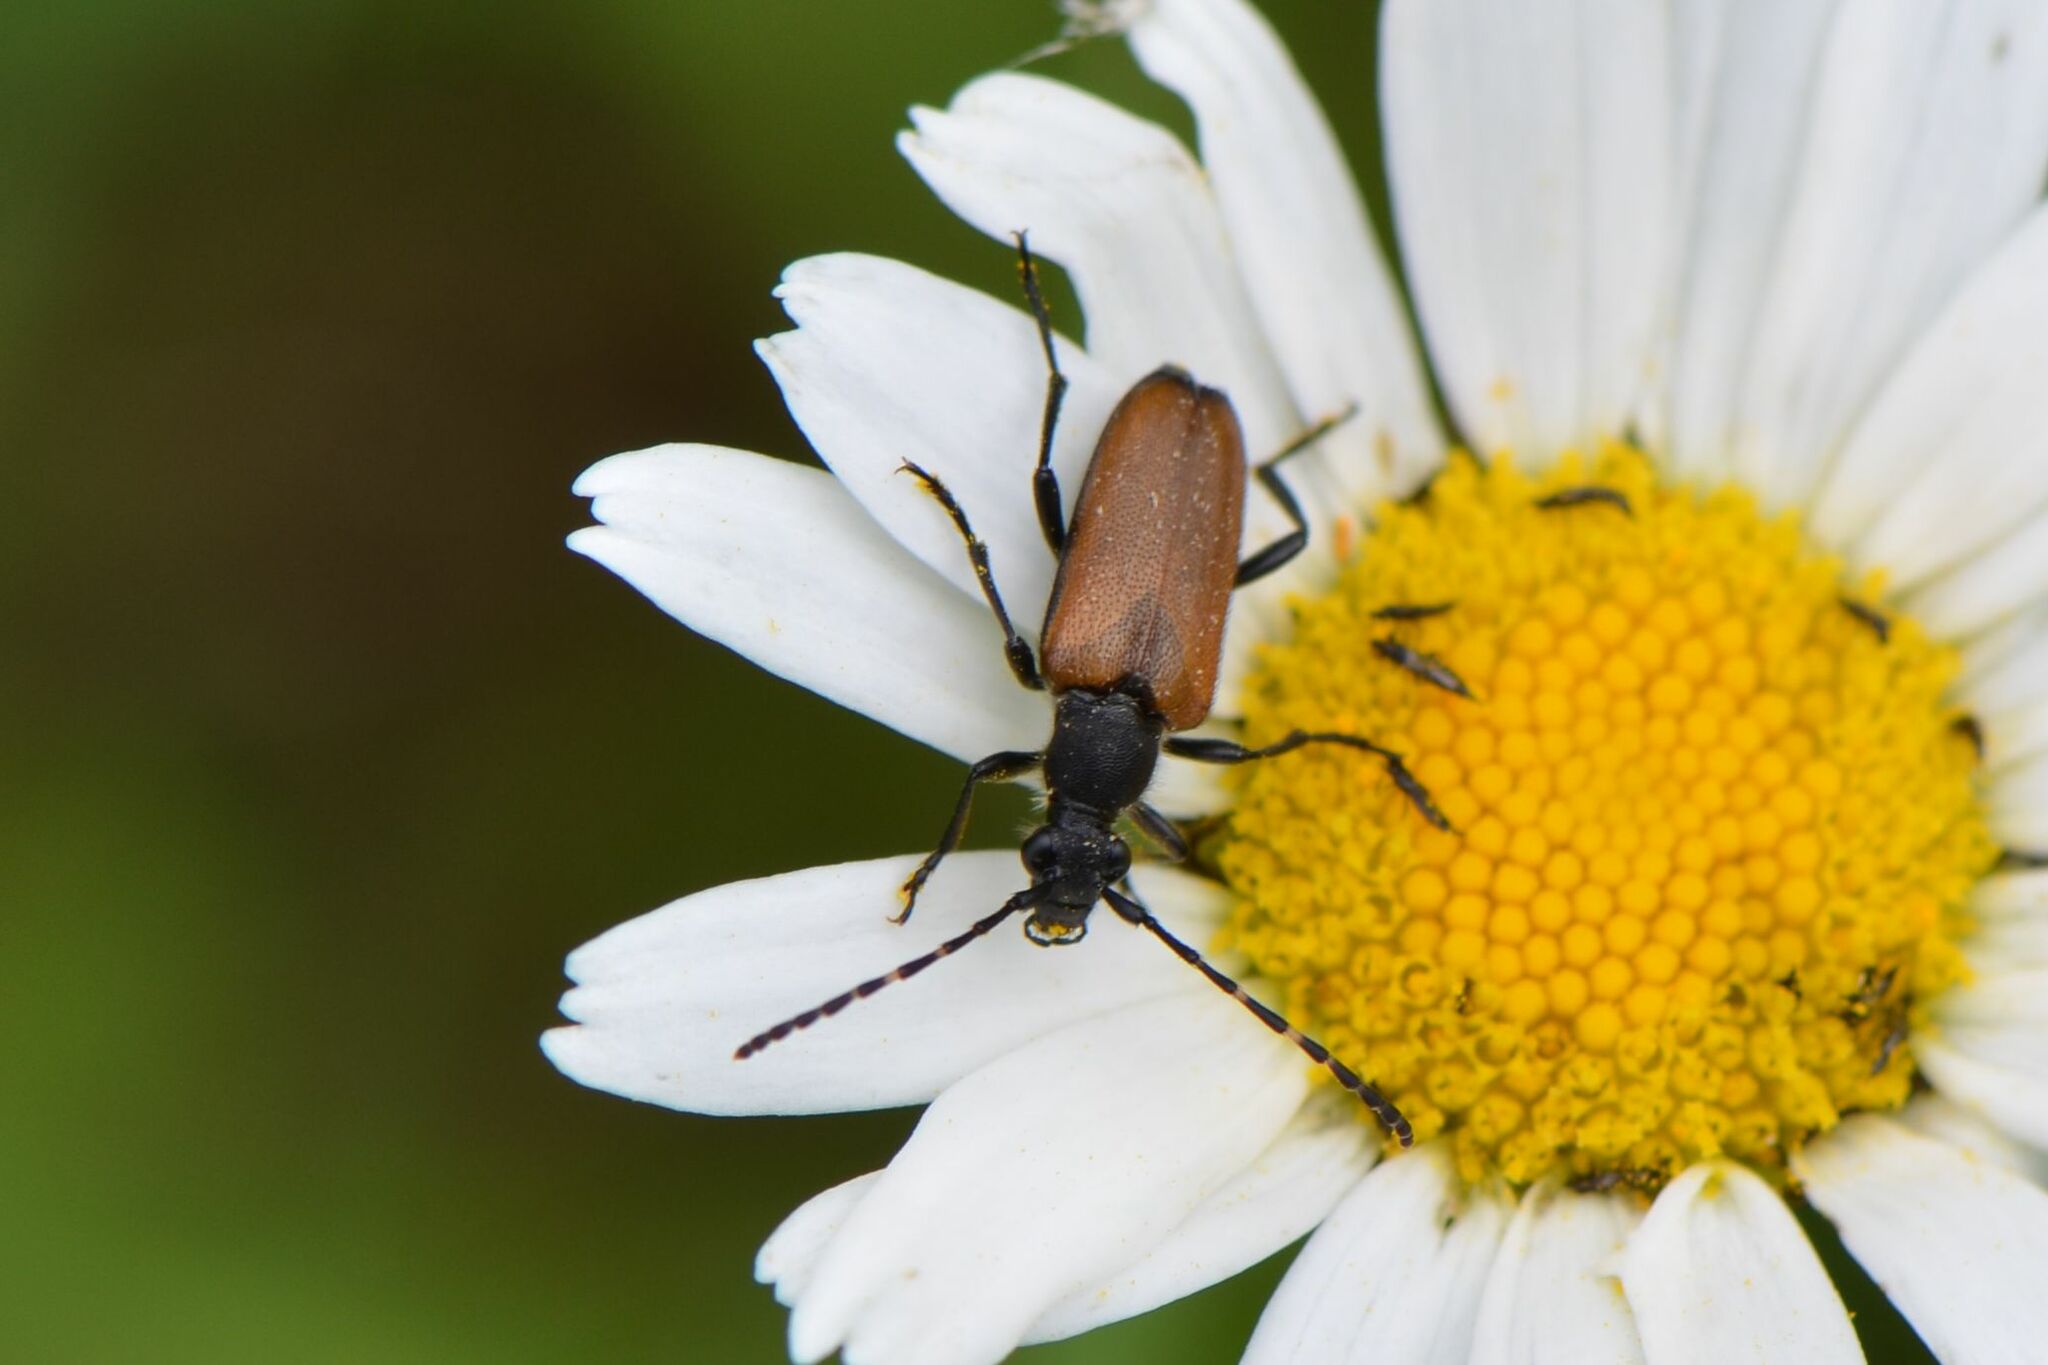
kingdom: Animalia
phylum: Arthropoda
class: Insecta
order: Coleoptera
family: Cerambycidae
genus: Paracorymbia
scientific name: Paracorymbia maculicornis
